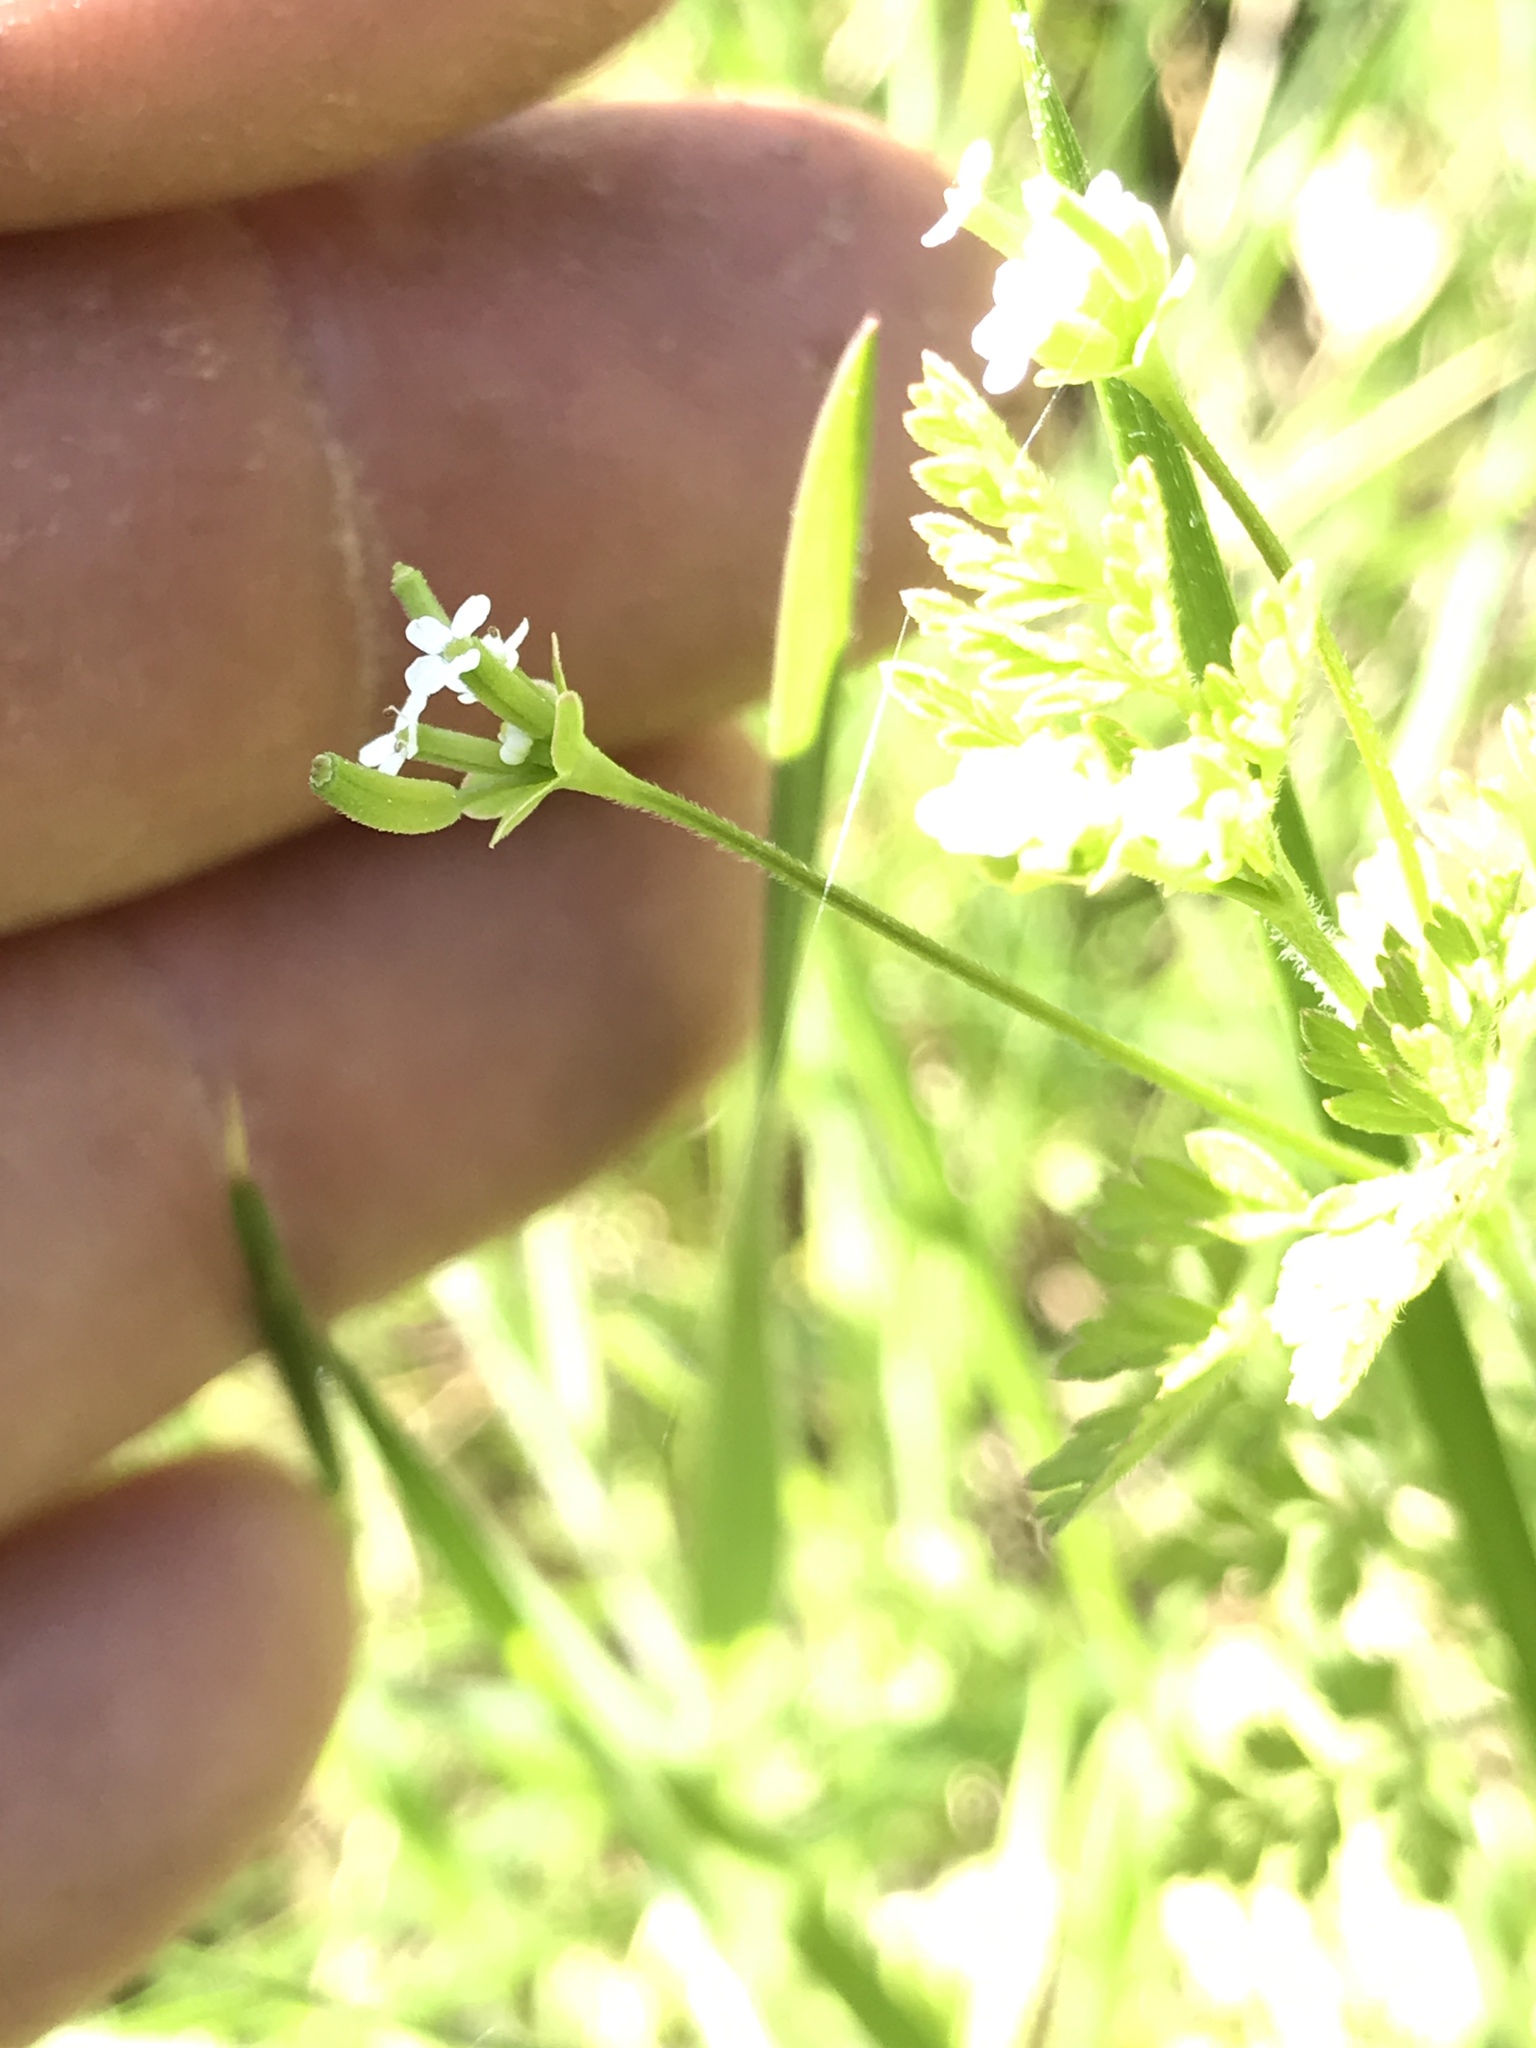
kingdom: Plantae
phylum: Tracheophyta
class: Magnoliopsida
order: Apiales
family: Apiaceae
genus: Chaerophyllum
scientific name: Chaerophyllum tainturieri
